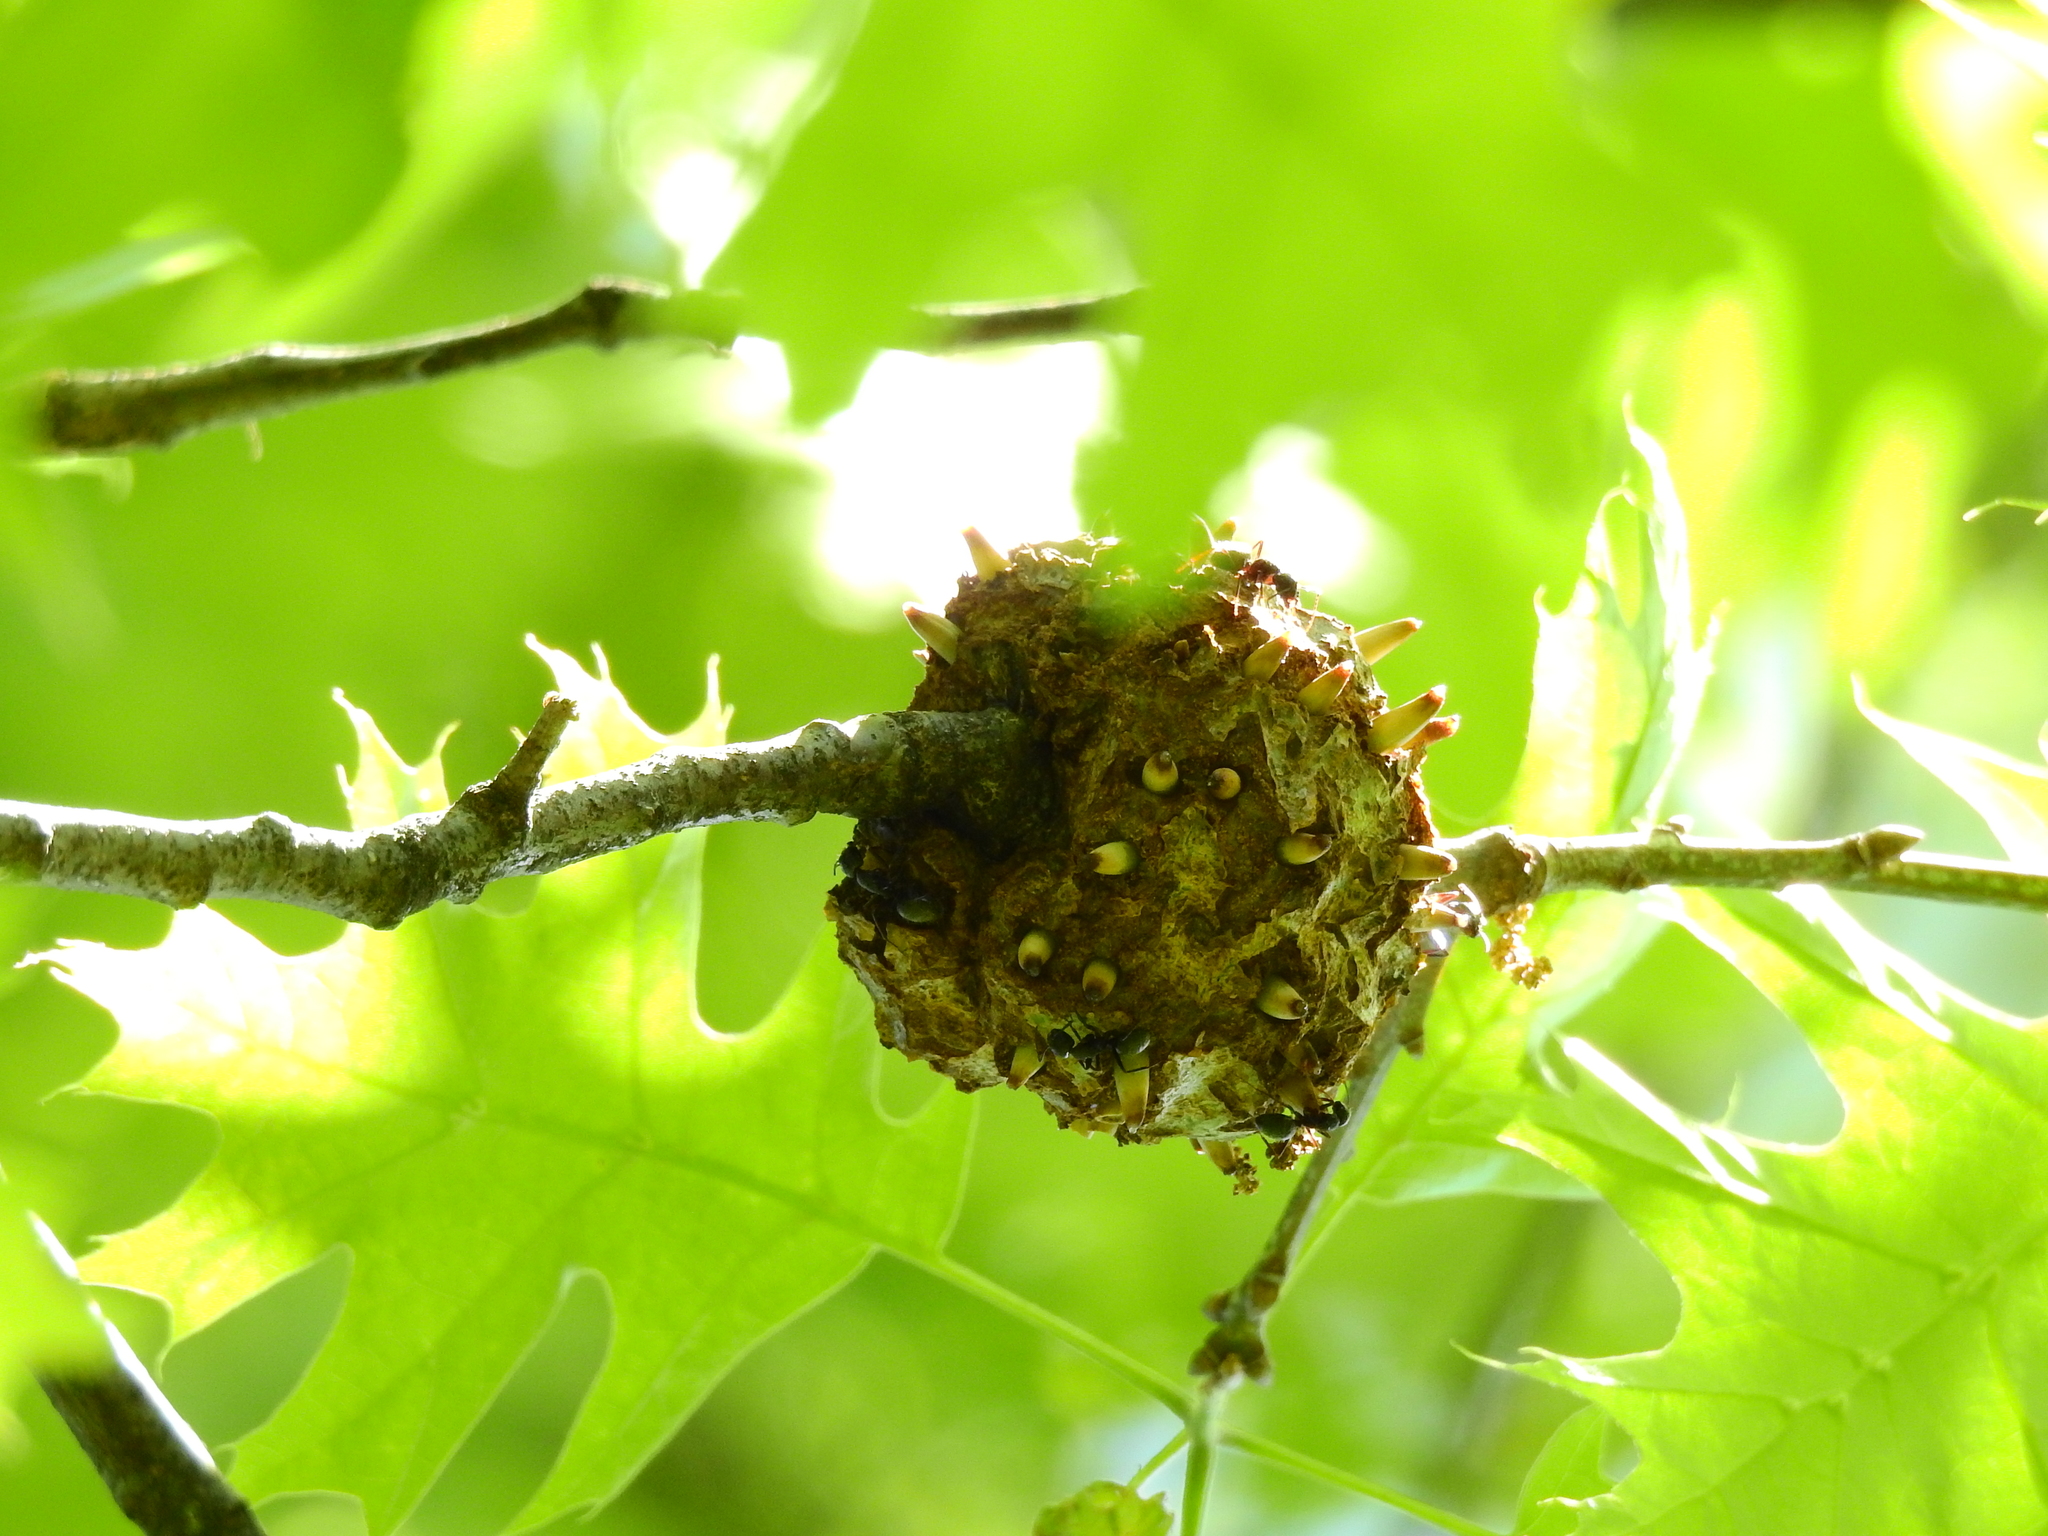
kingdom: Animalia
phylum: Arthropoda
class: Insecta
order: Hymenoptera
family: Cynipidae
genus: Callirhytis
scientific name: Callirhytis
